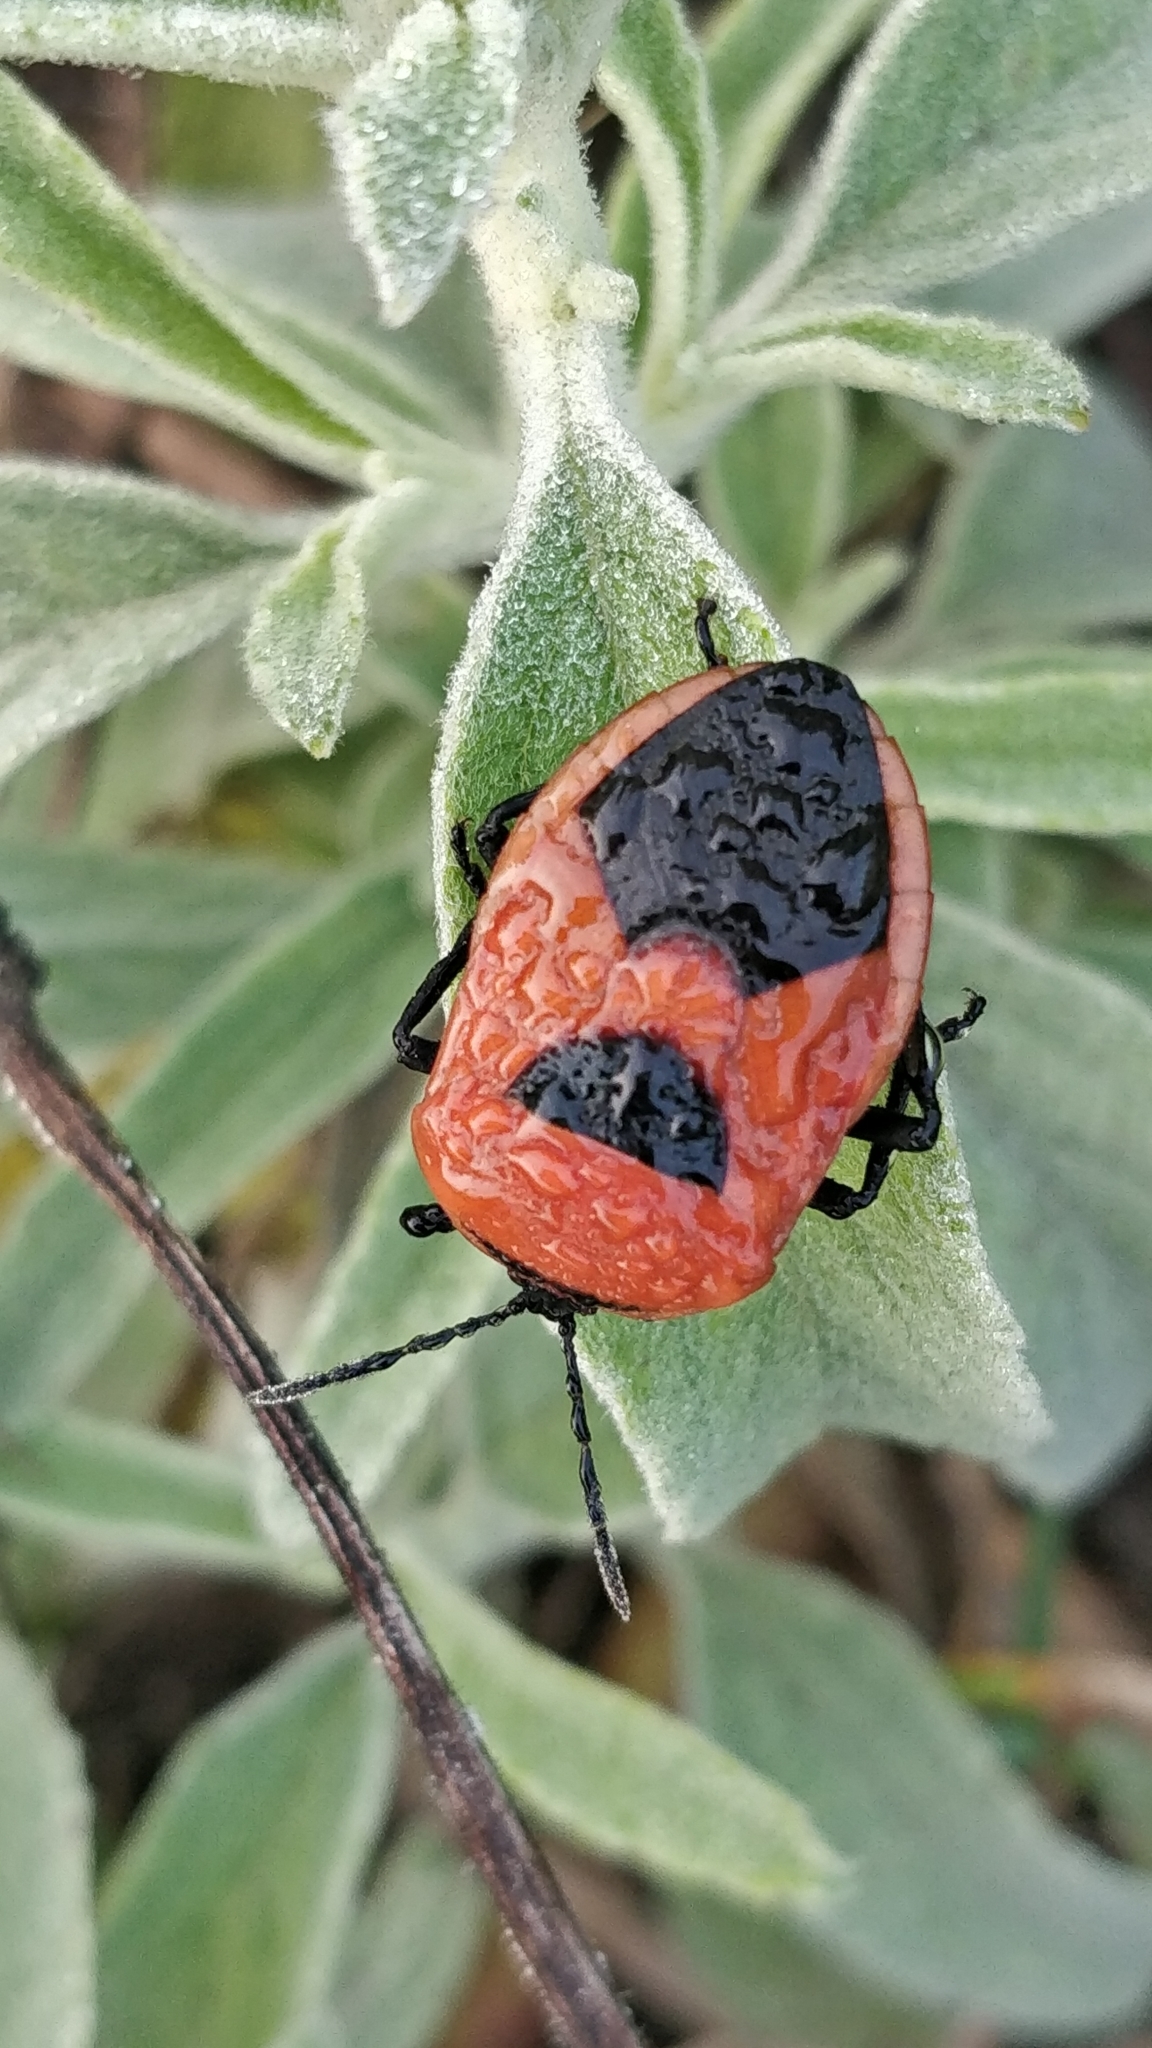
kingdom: Animalia
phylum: Arthropoda
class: Insecta
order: Hemiptera
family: Dinidoridae
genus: Coridius
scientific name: Coridius ianus
